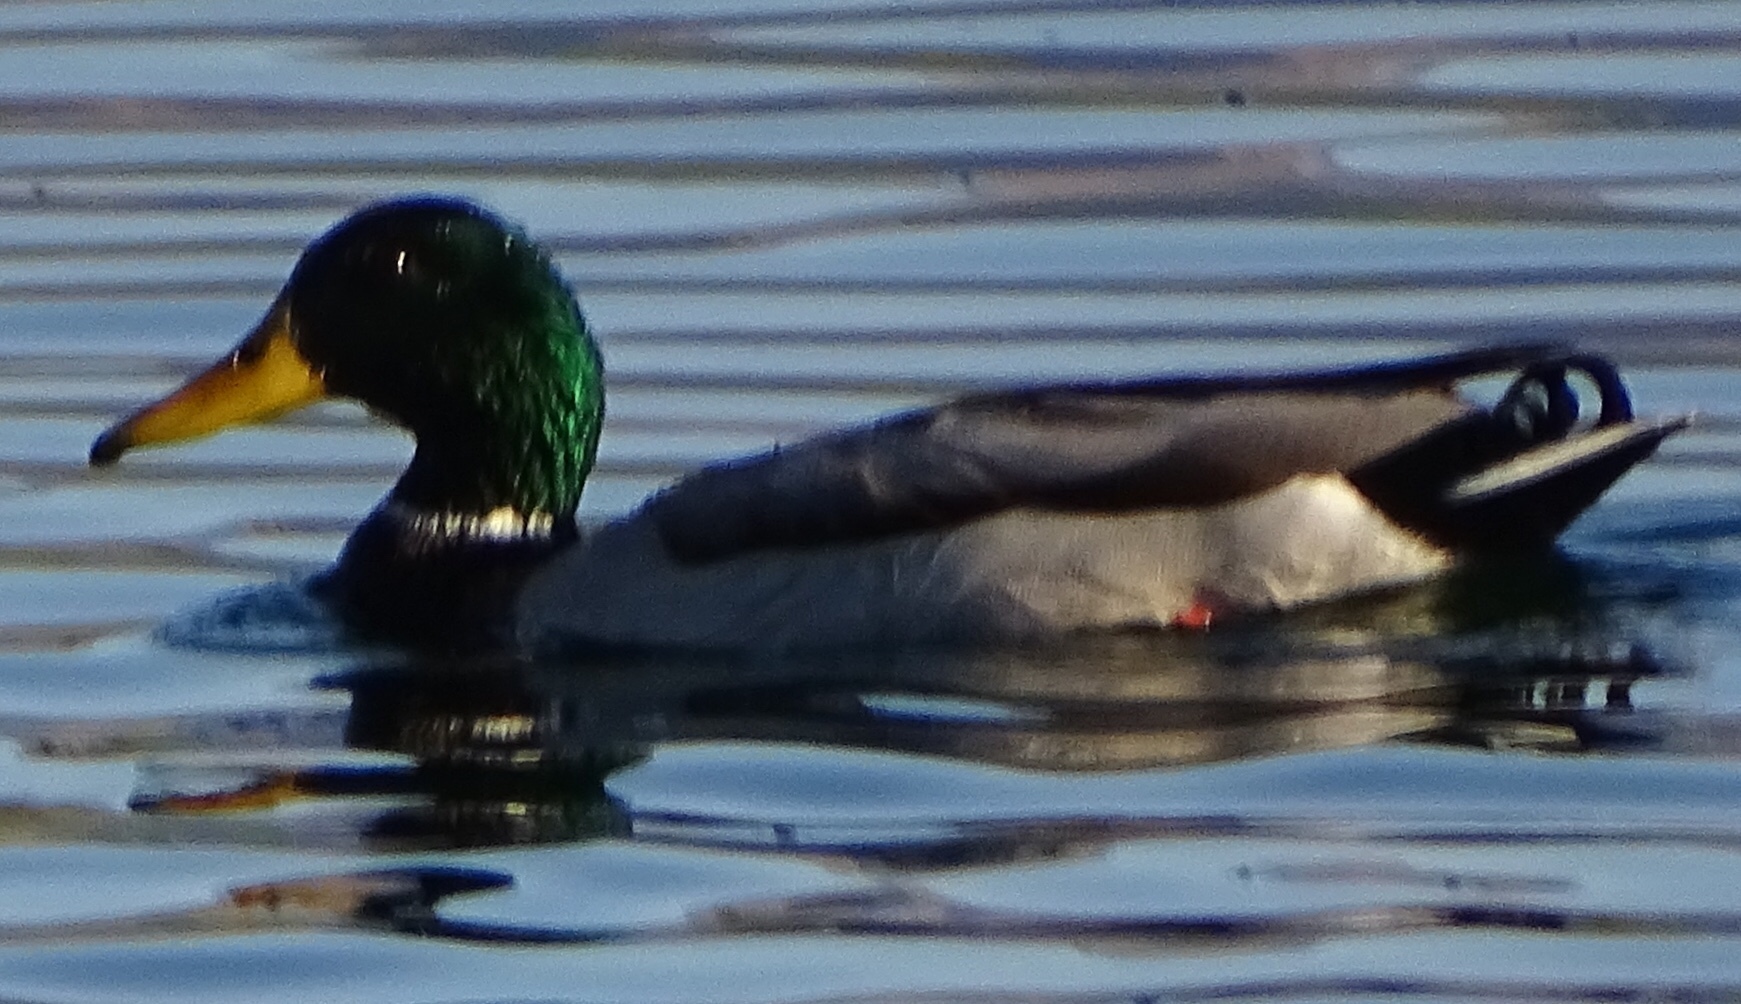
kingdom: Animalia
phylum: Chordata
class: Aves
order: Anseriformes
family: Anatidae
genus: Anas
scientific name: Anas platyrhynchos
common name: Mallard
